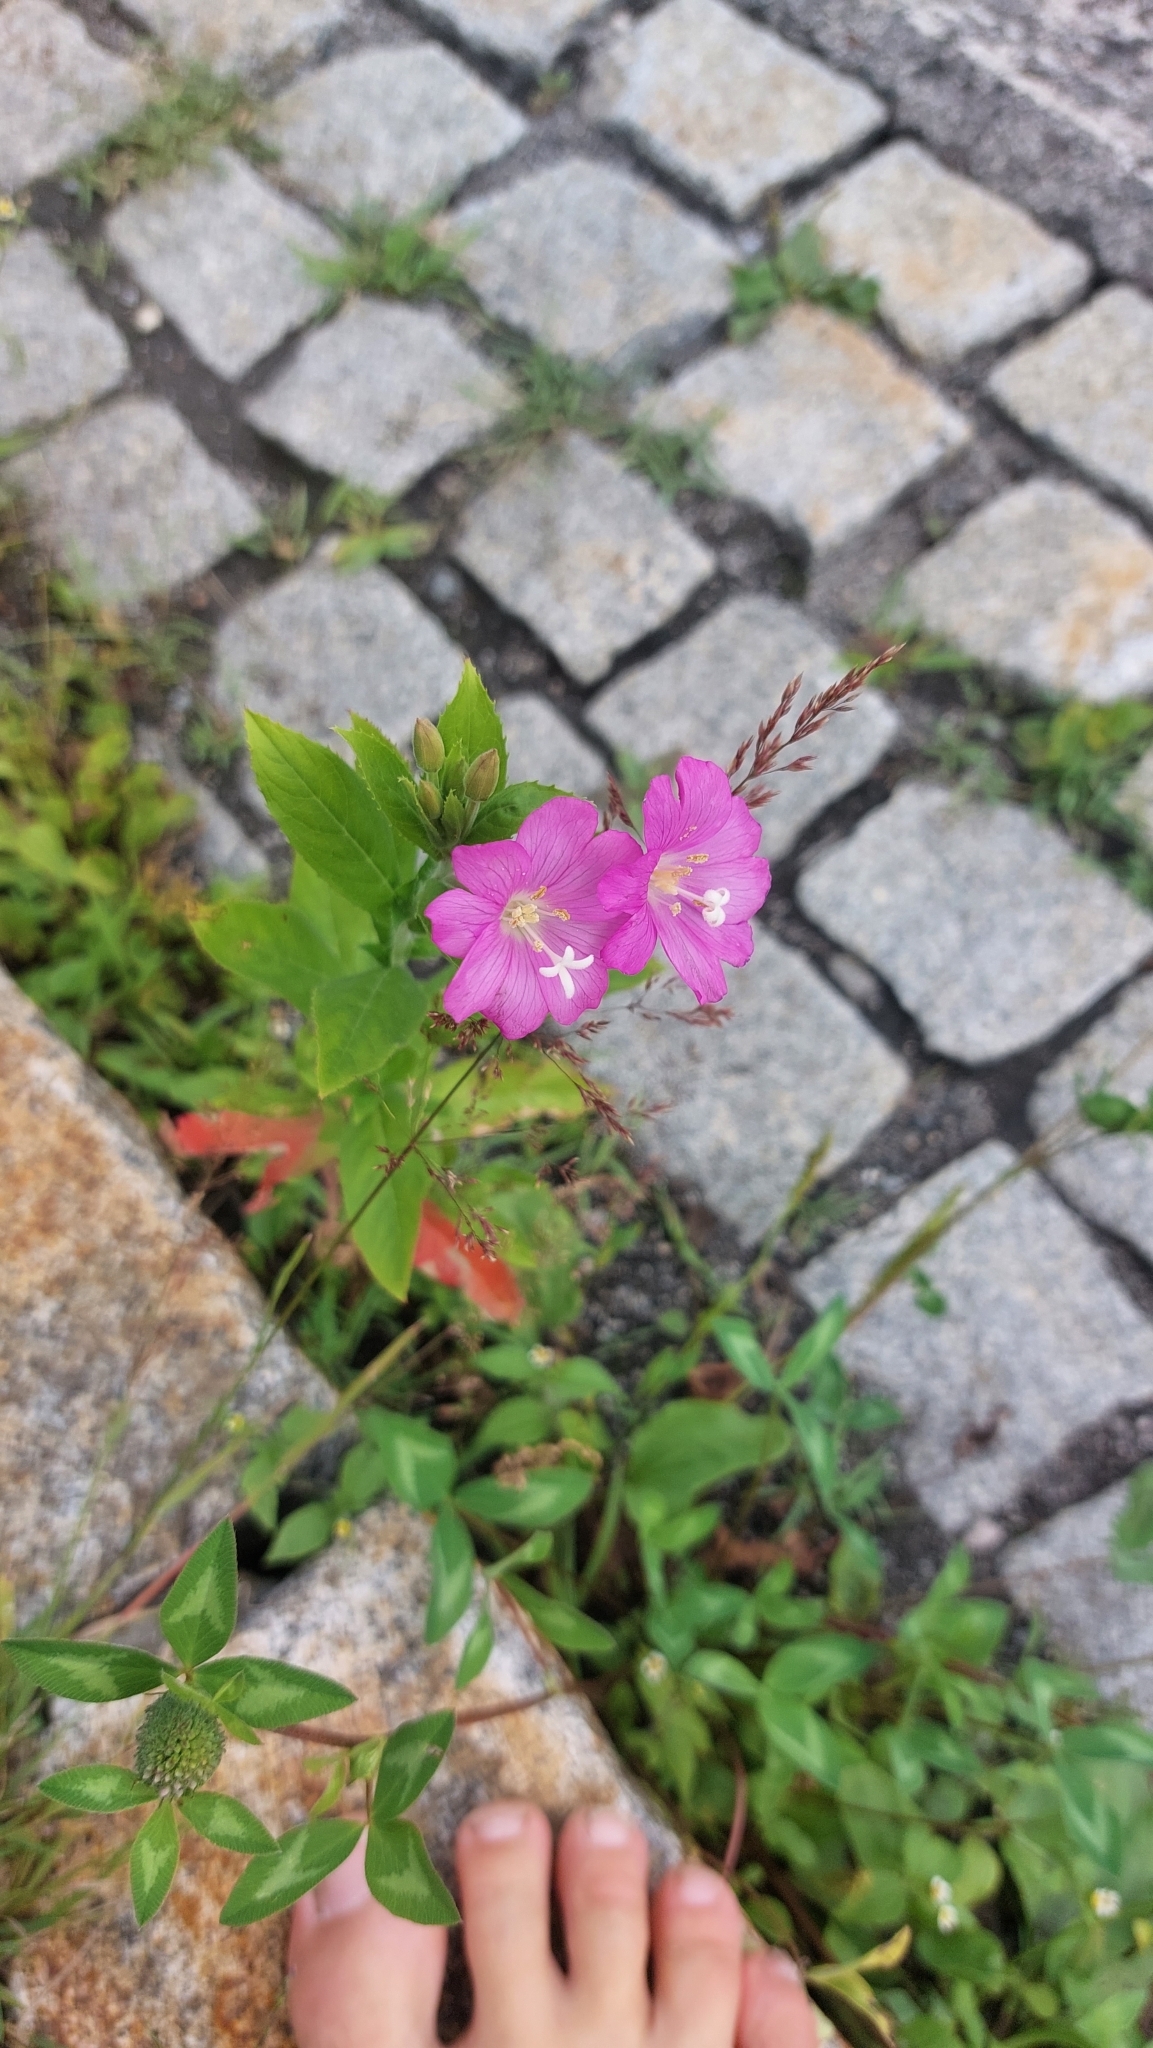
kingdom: Plantae
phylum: Tracheophyta
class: Magnoliopsida
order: Myrtales
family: Onagraceae
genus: Epilobium
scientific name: Epilobium hirsutum
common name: Great willowherb
